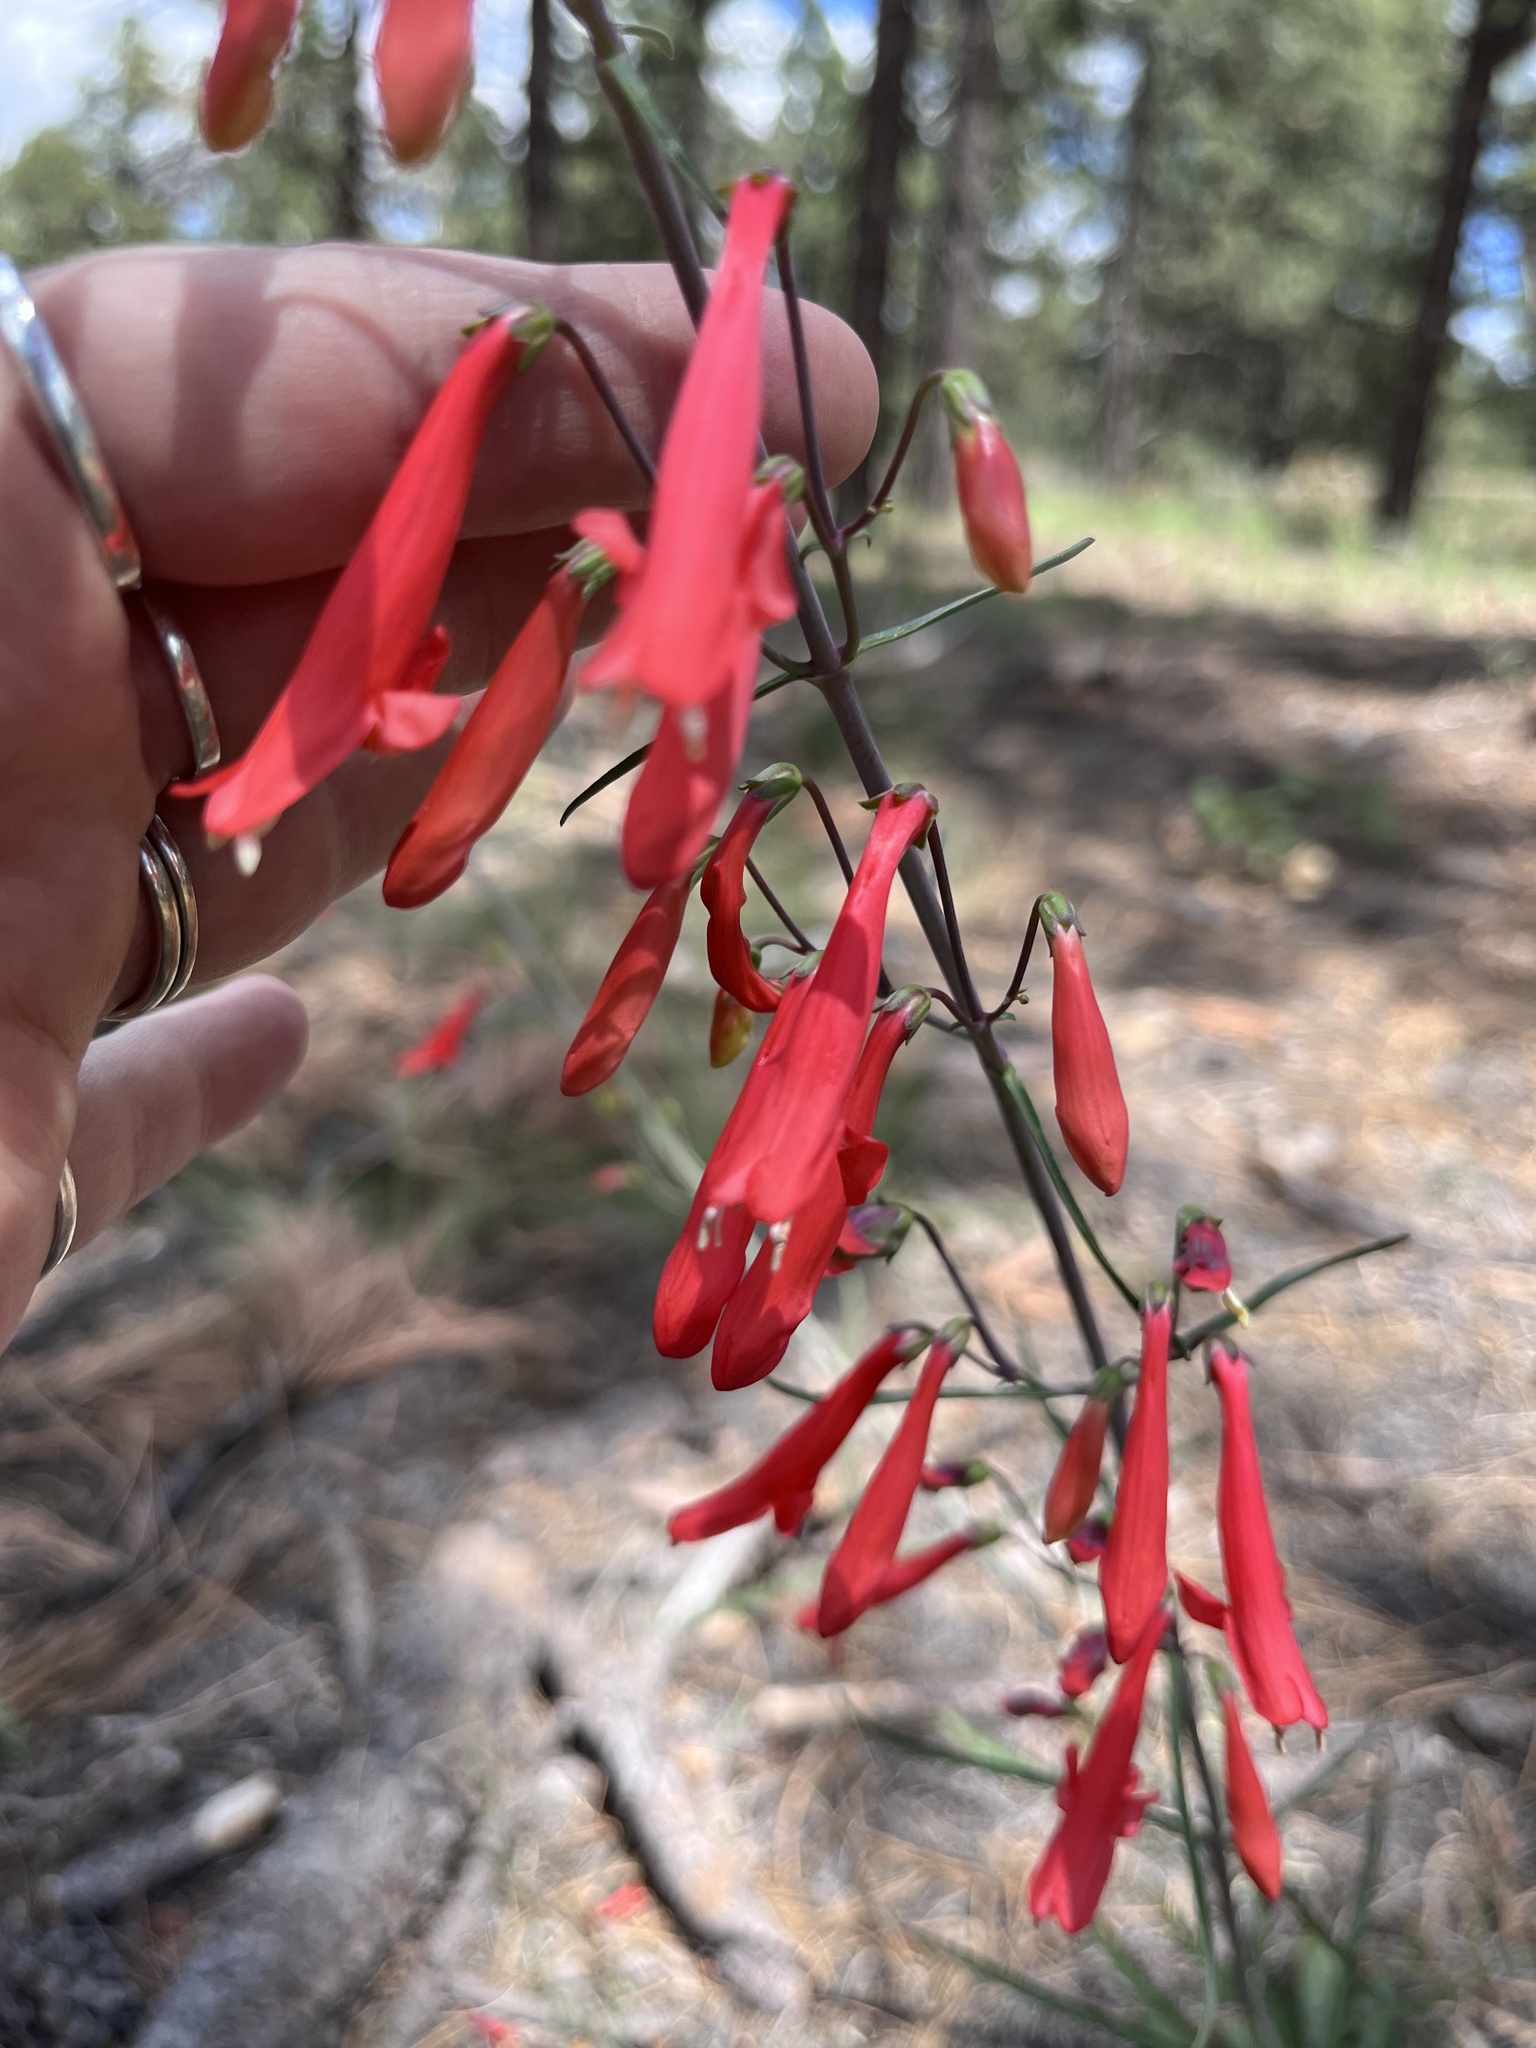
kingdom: Plantae
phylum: Tracheophyta
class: Magnoliopsida
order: Lamiales
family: Plantaginaceae
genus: Penstemon
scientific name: Penstemon barbatus
